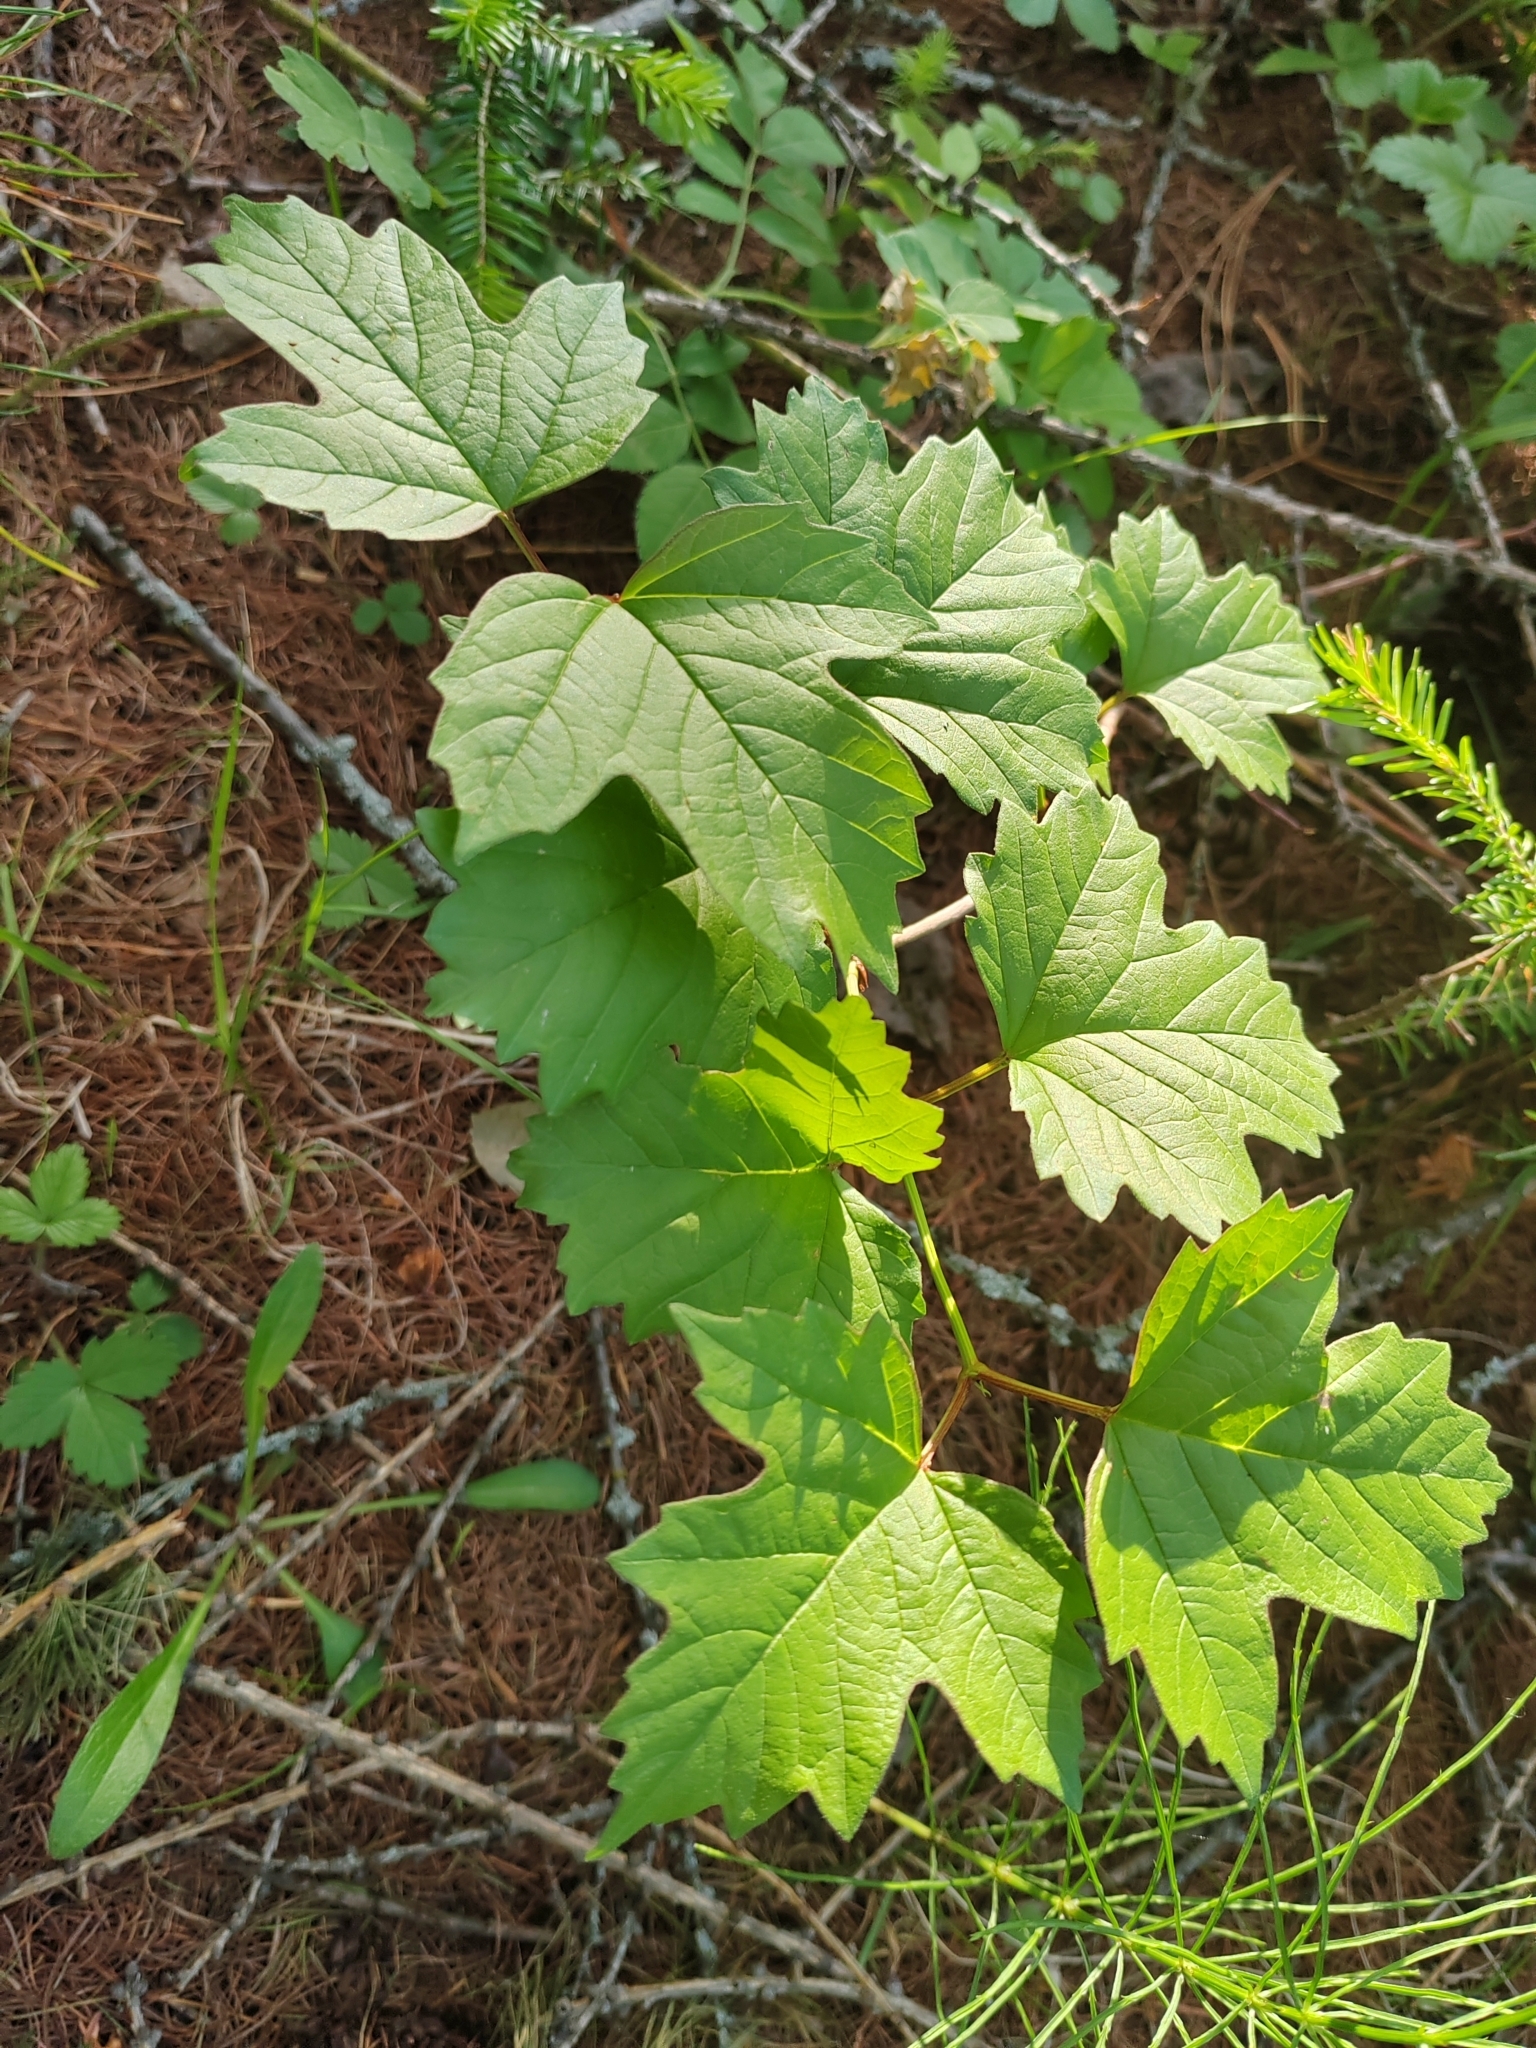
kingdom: Plantae
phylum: Tracheophyta
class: Magnoliopsida
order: Dipsacales
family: Viburnaceae
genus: Viburnum
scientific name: Viburnum opulus
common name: Guelder-rose
